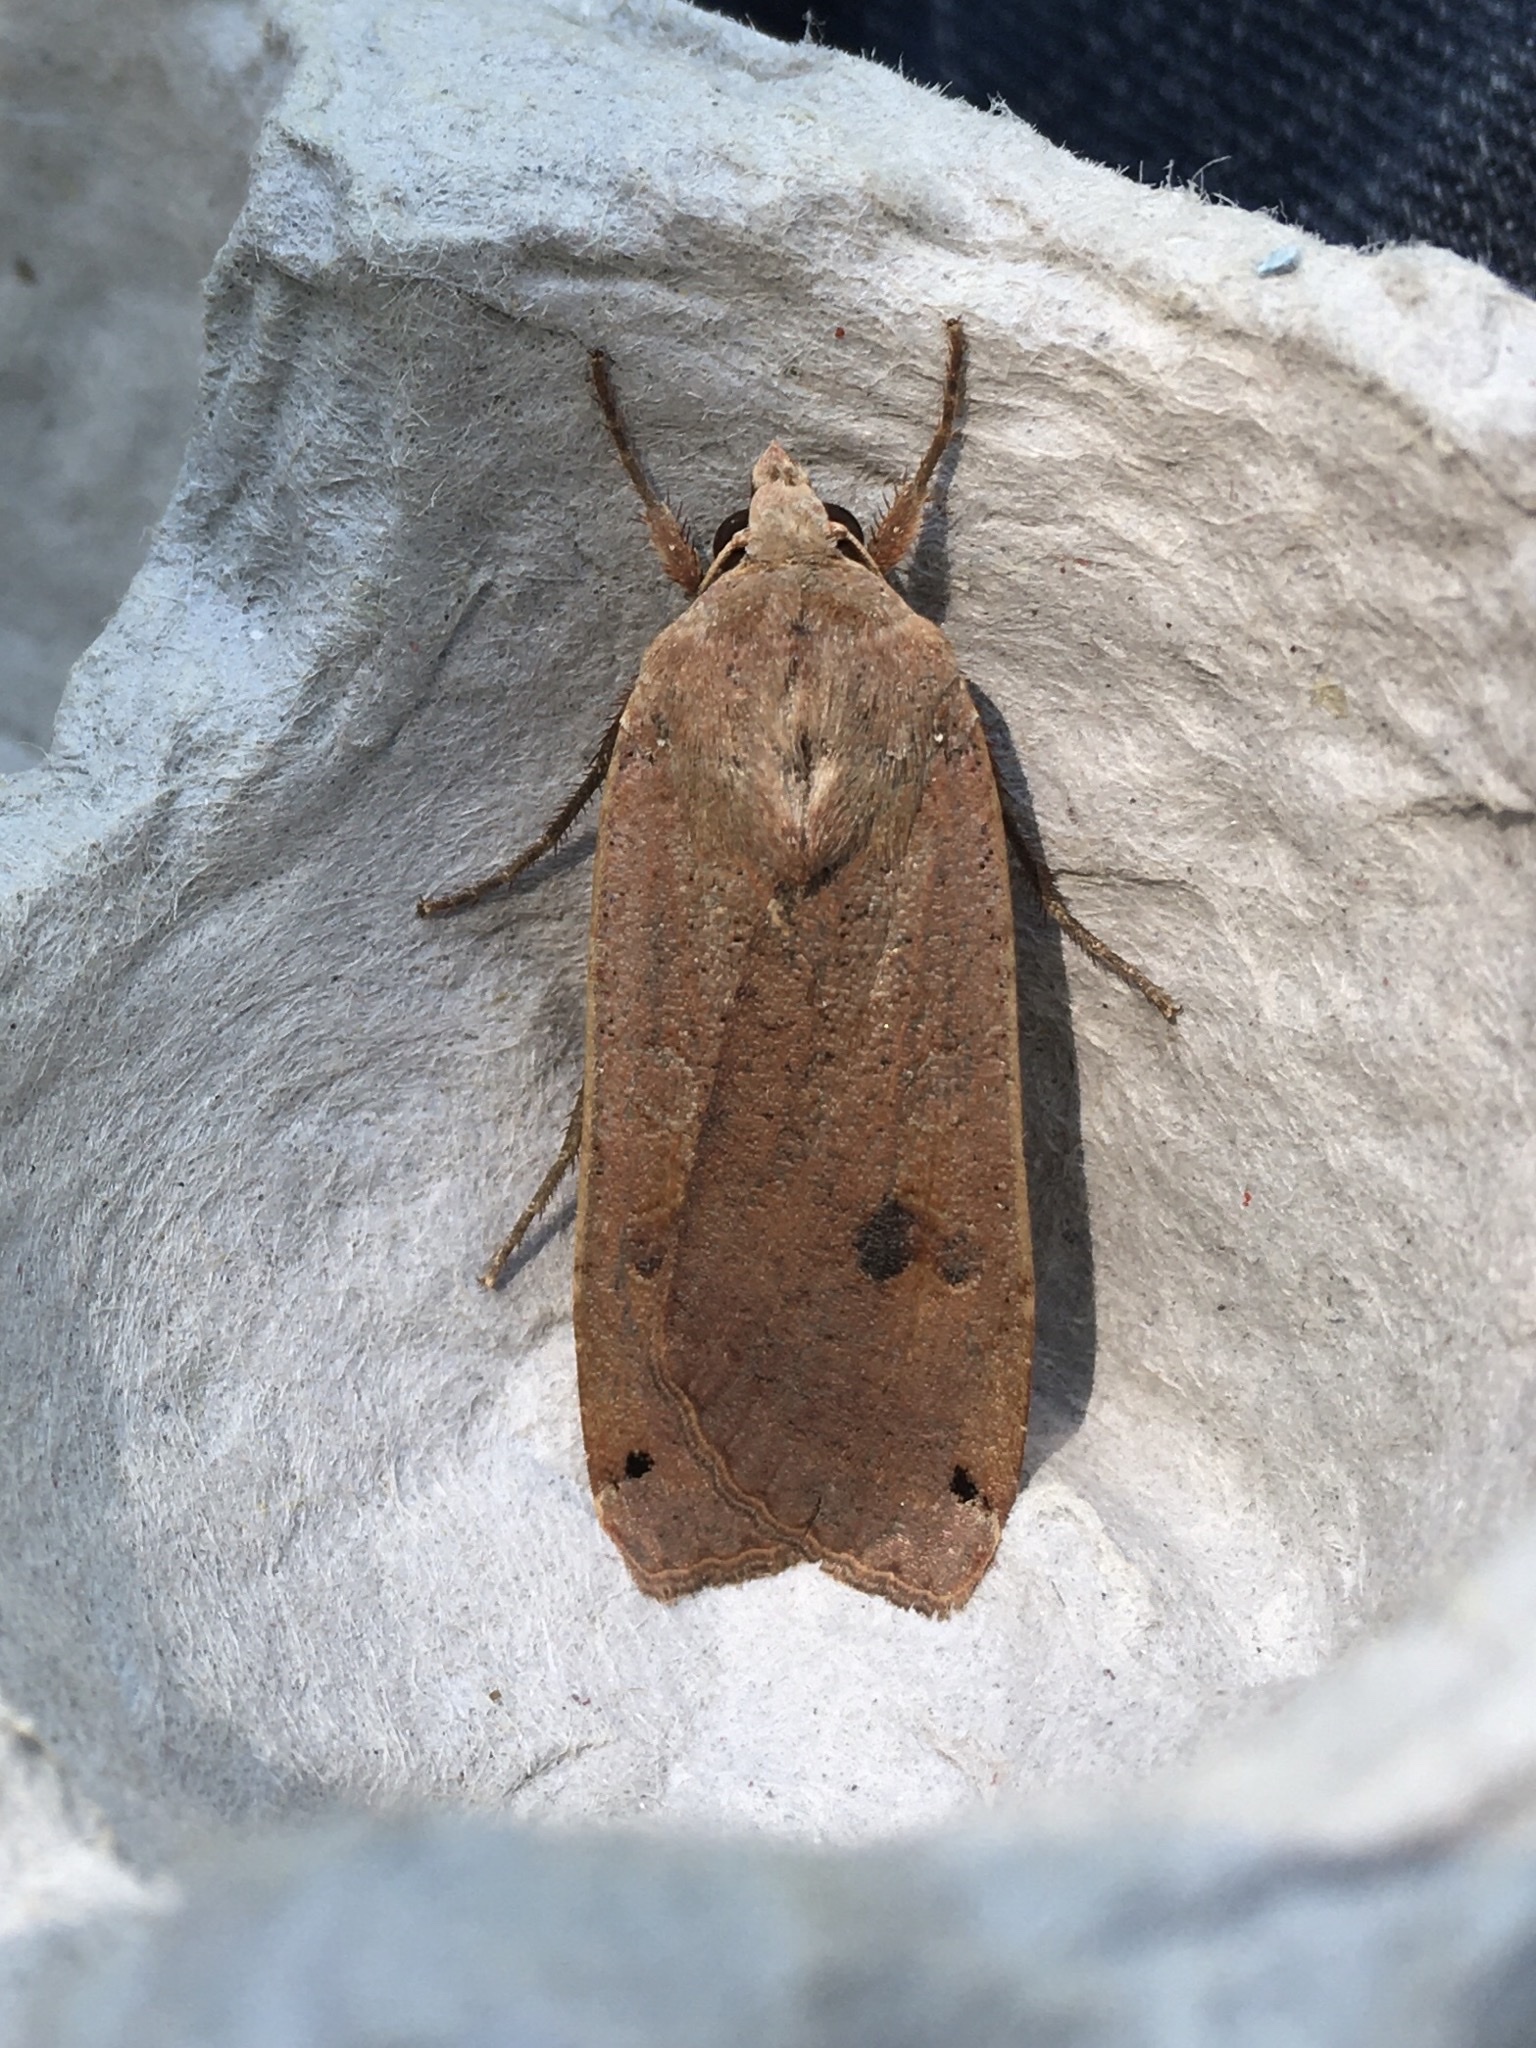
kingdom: Animalia
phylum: Arthropoda
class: Insecta
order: Lepidoptera
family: Noctuidae
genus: Noctua
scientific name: Noctua pronuba
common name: Large yellow underwing
